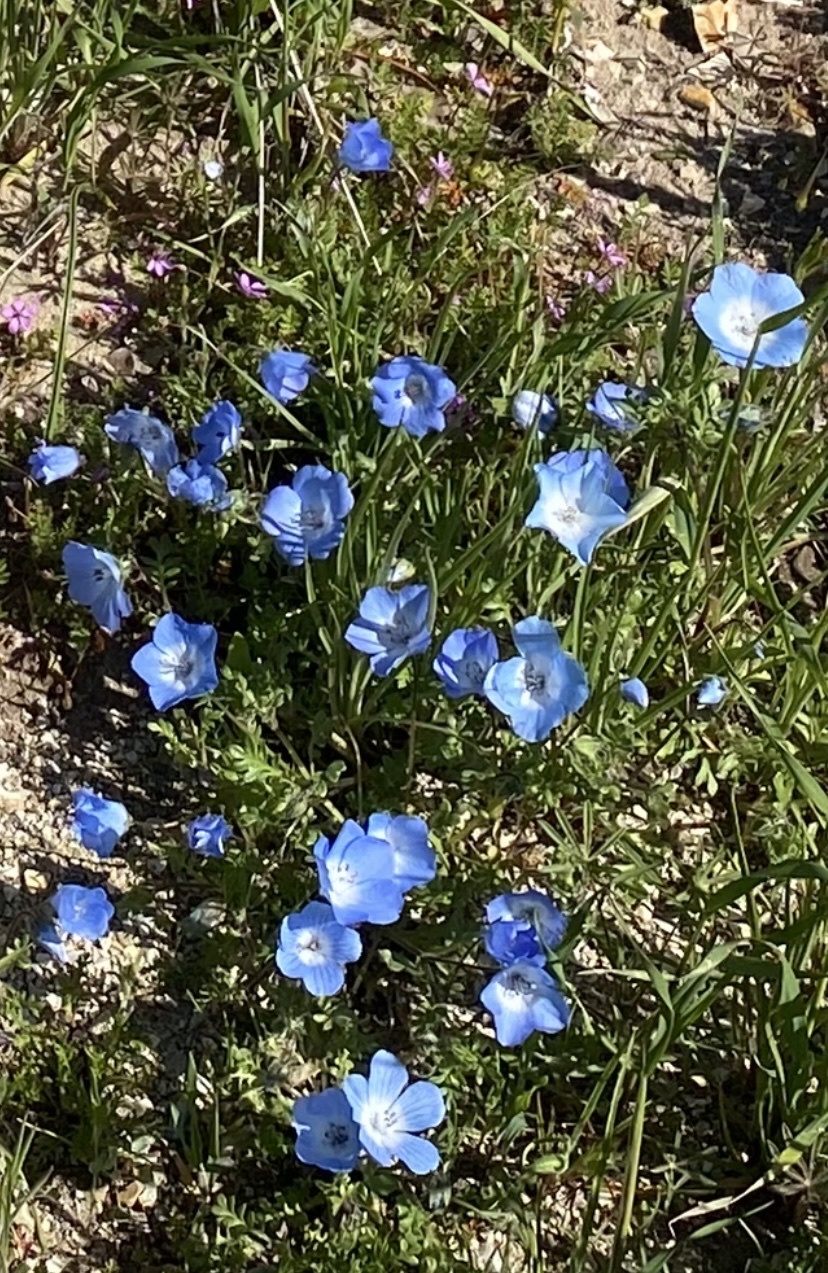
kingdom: Plantae
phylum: Tracheophyta
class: Magnoliopsida
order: Boraginales
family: Hydrophyllaceae
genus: Nemophila
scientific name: Nemophila menziesii
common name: Baby's-blue-eyes
